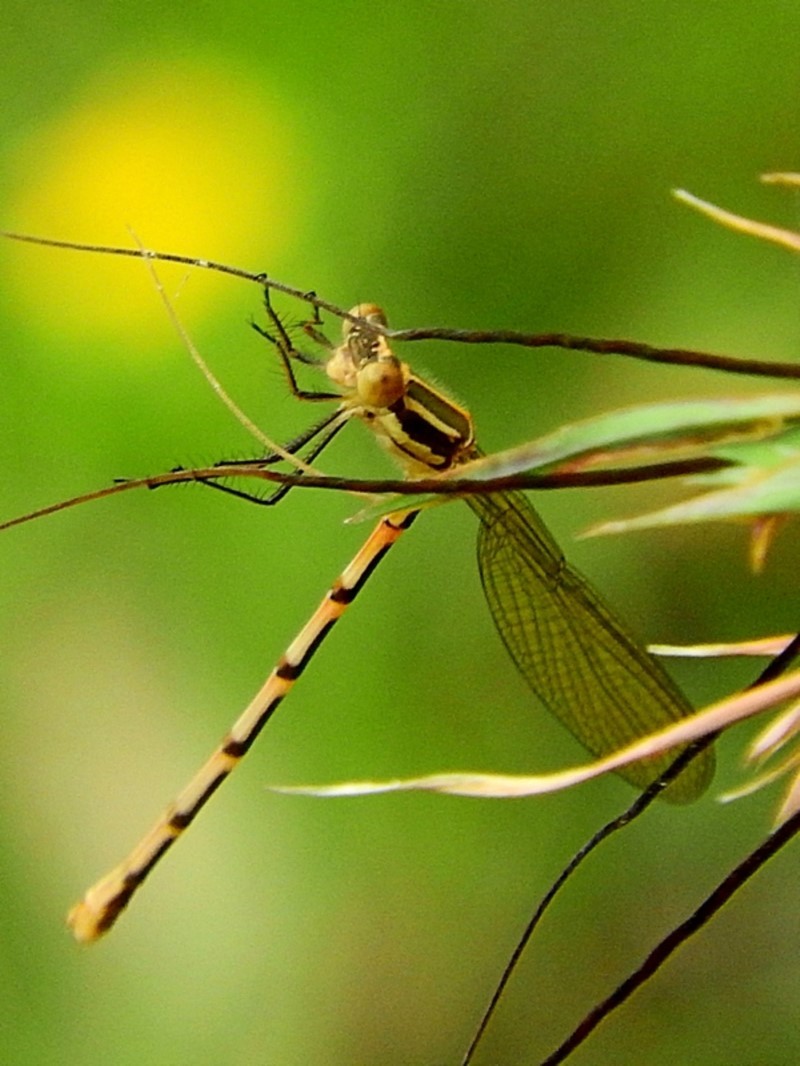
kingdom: Animalia
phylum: Arthropoda
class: Insecta
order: Odonata
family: Lestidae
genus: Austrolestes
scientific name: Austrolestes leda
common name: Wandering ringtail
